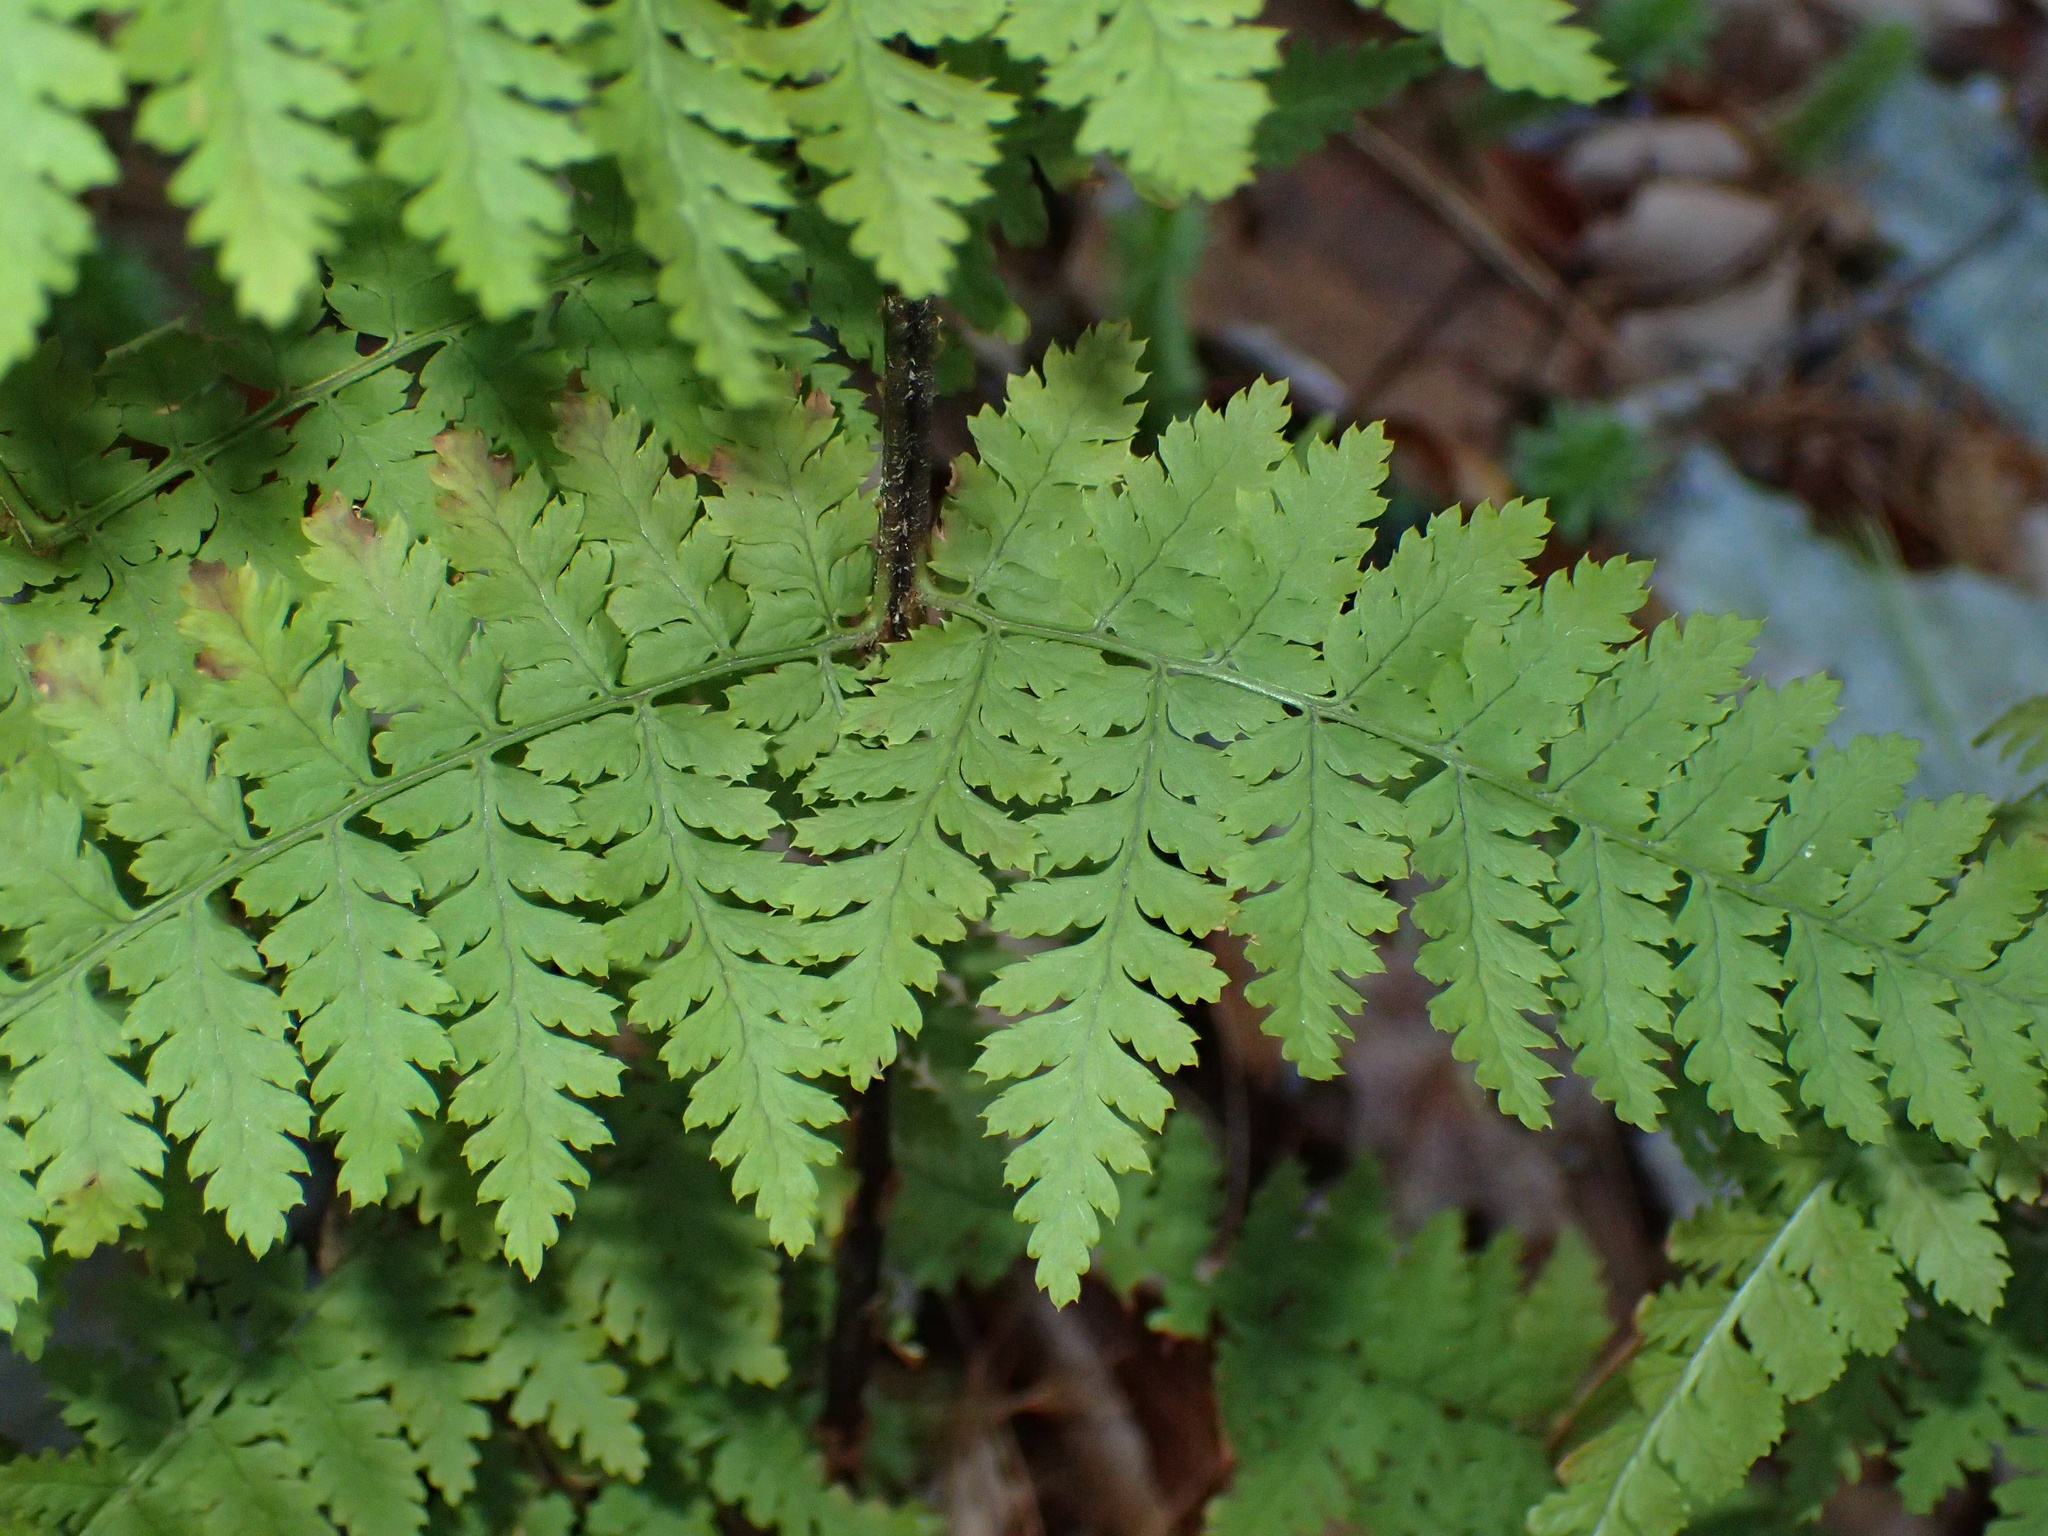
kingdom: Plantae
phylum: Tracheophyta
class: Polypodiopsida
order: Polypodiales
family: Dryopteridaceae
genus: Dryopteris
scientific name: Dryopteris intermedia
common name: Evergreen wood fern
